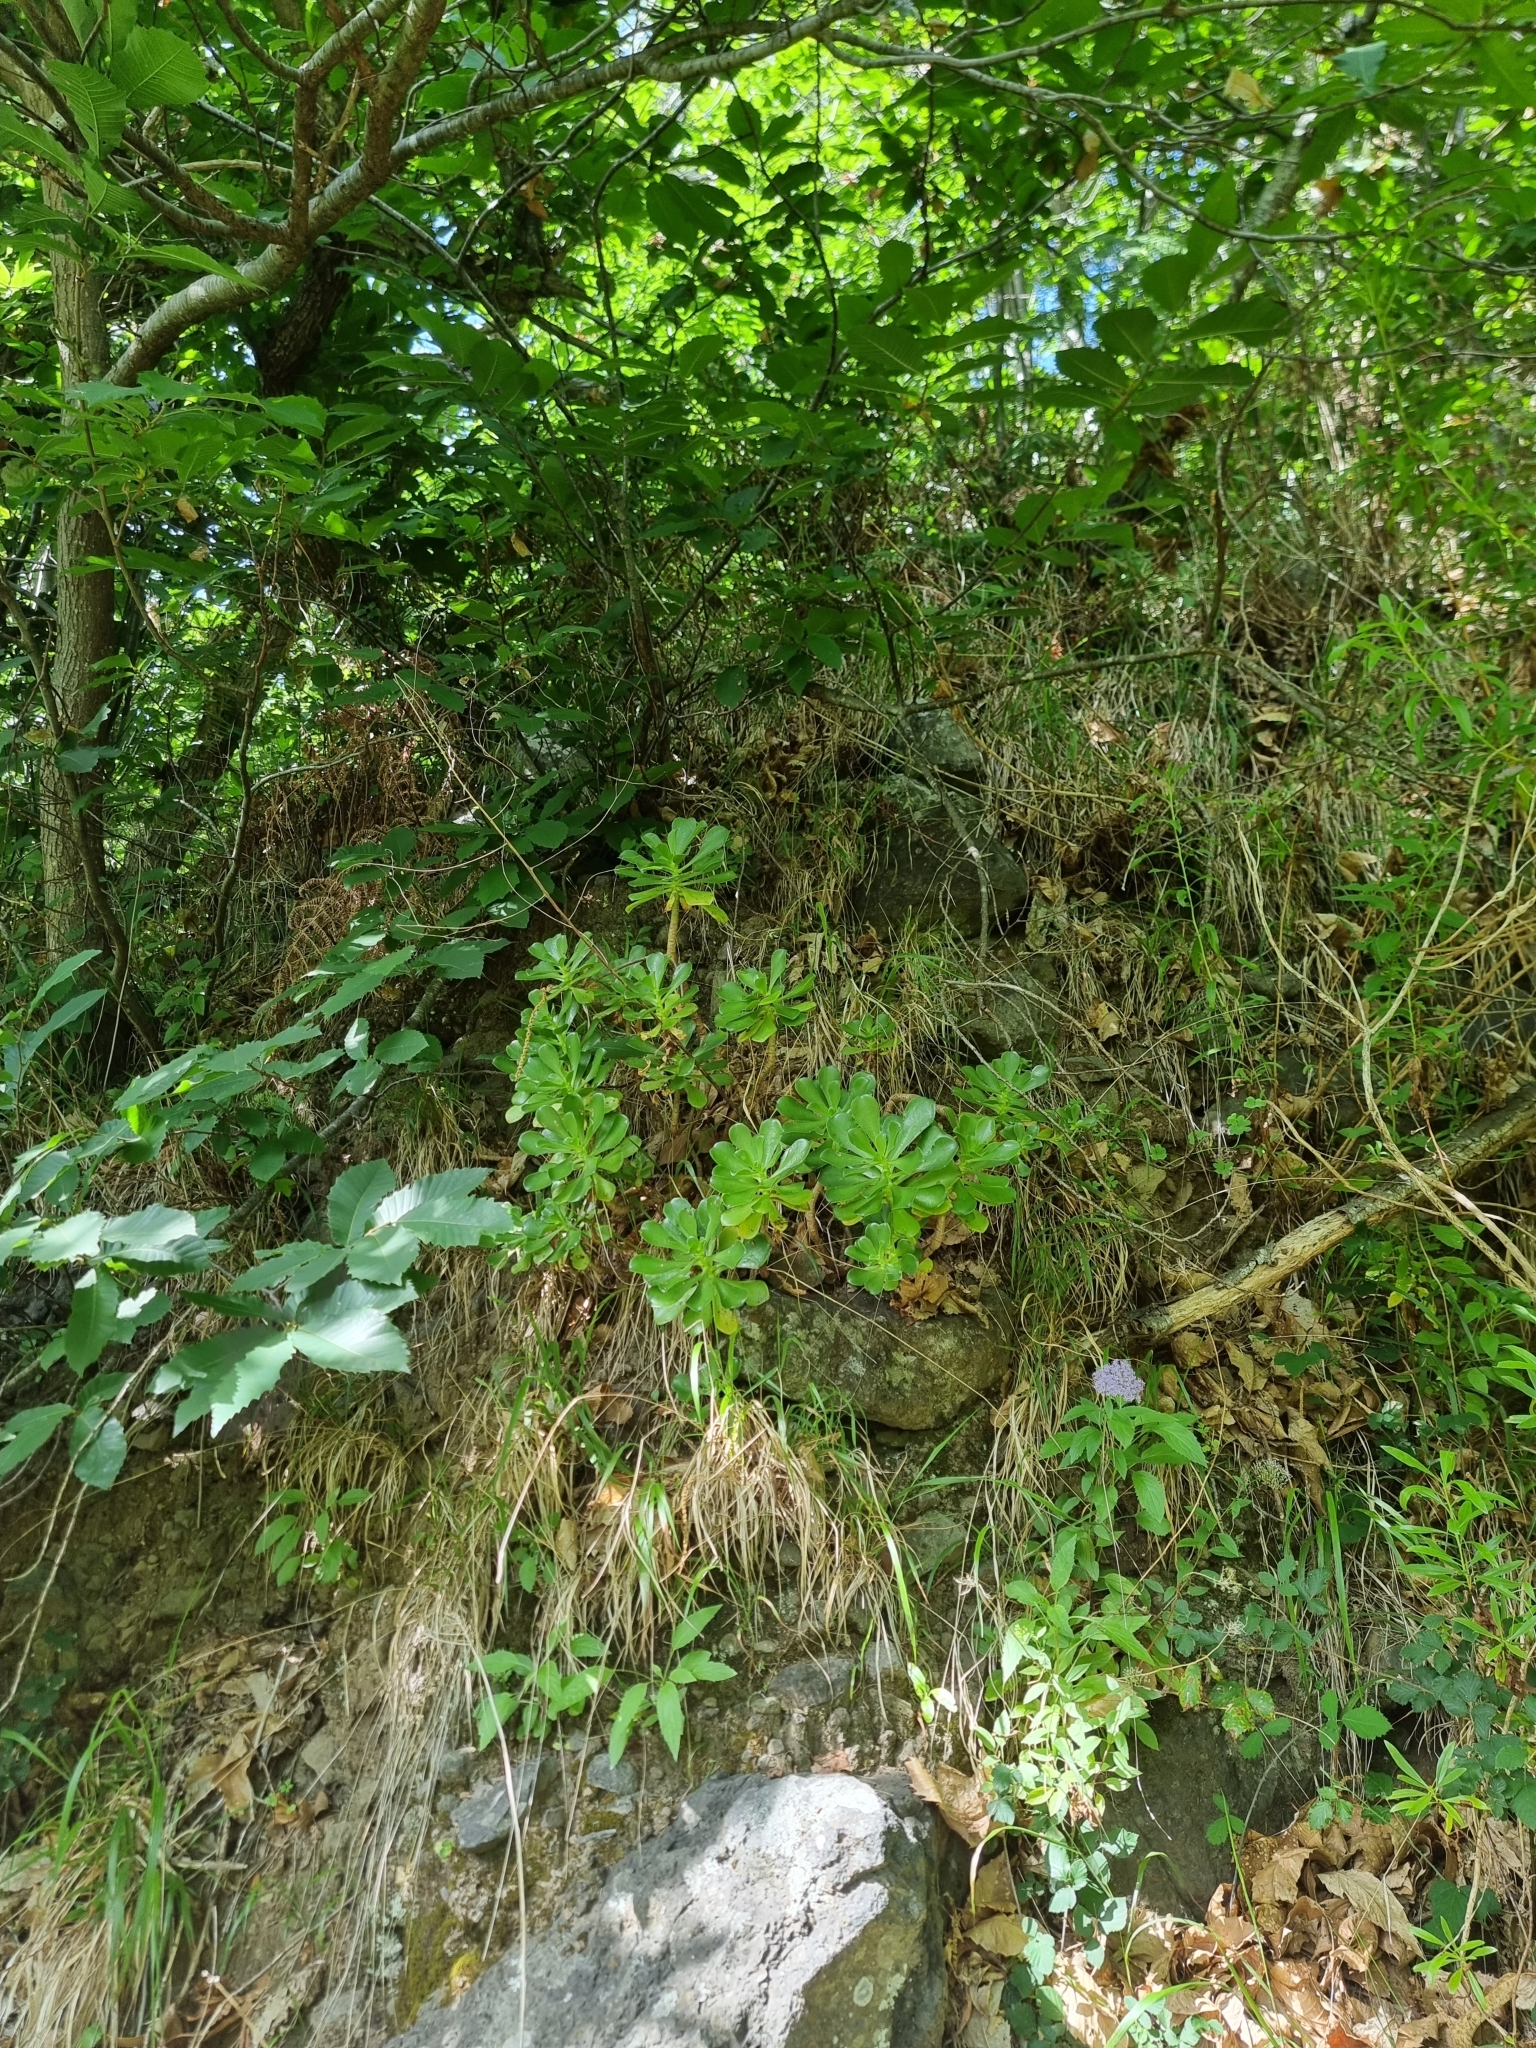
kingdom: Plantae
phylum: Tracheophyta
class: Magnoliopsida
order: Saxifragales
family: Crassulaceae
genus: Aeonium
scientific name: Aeonium glutinosum
